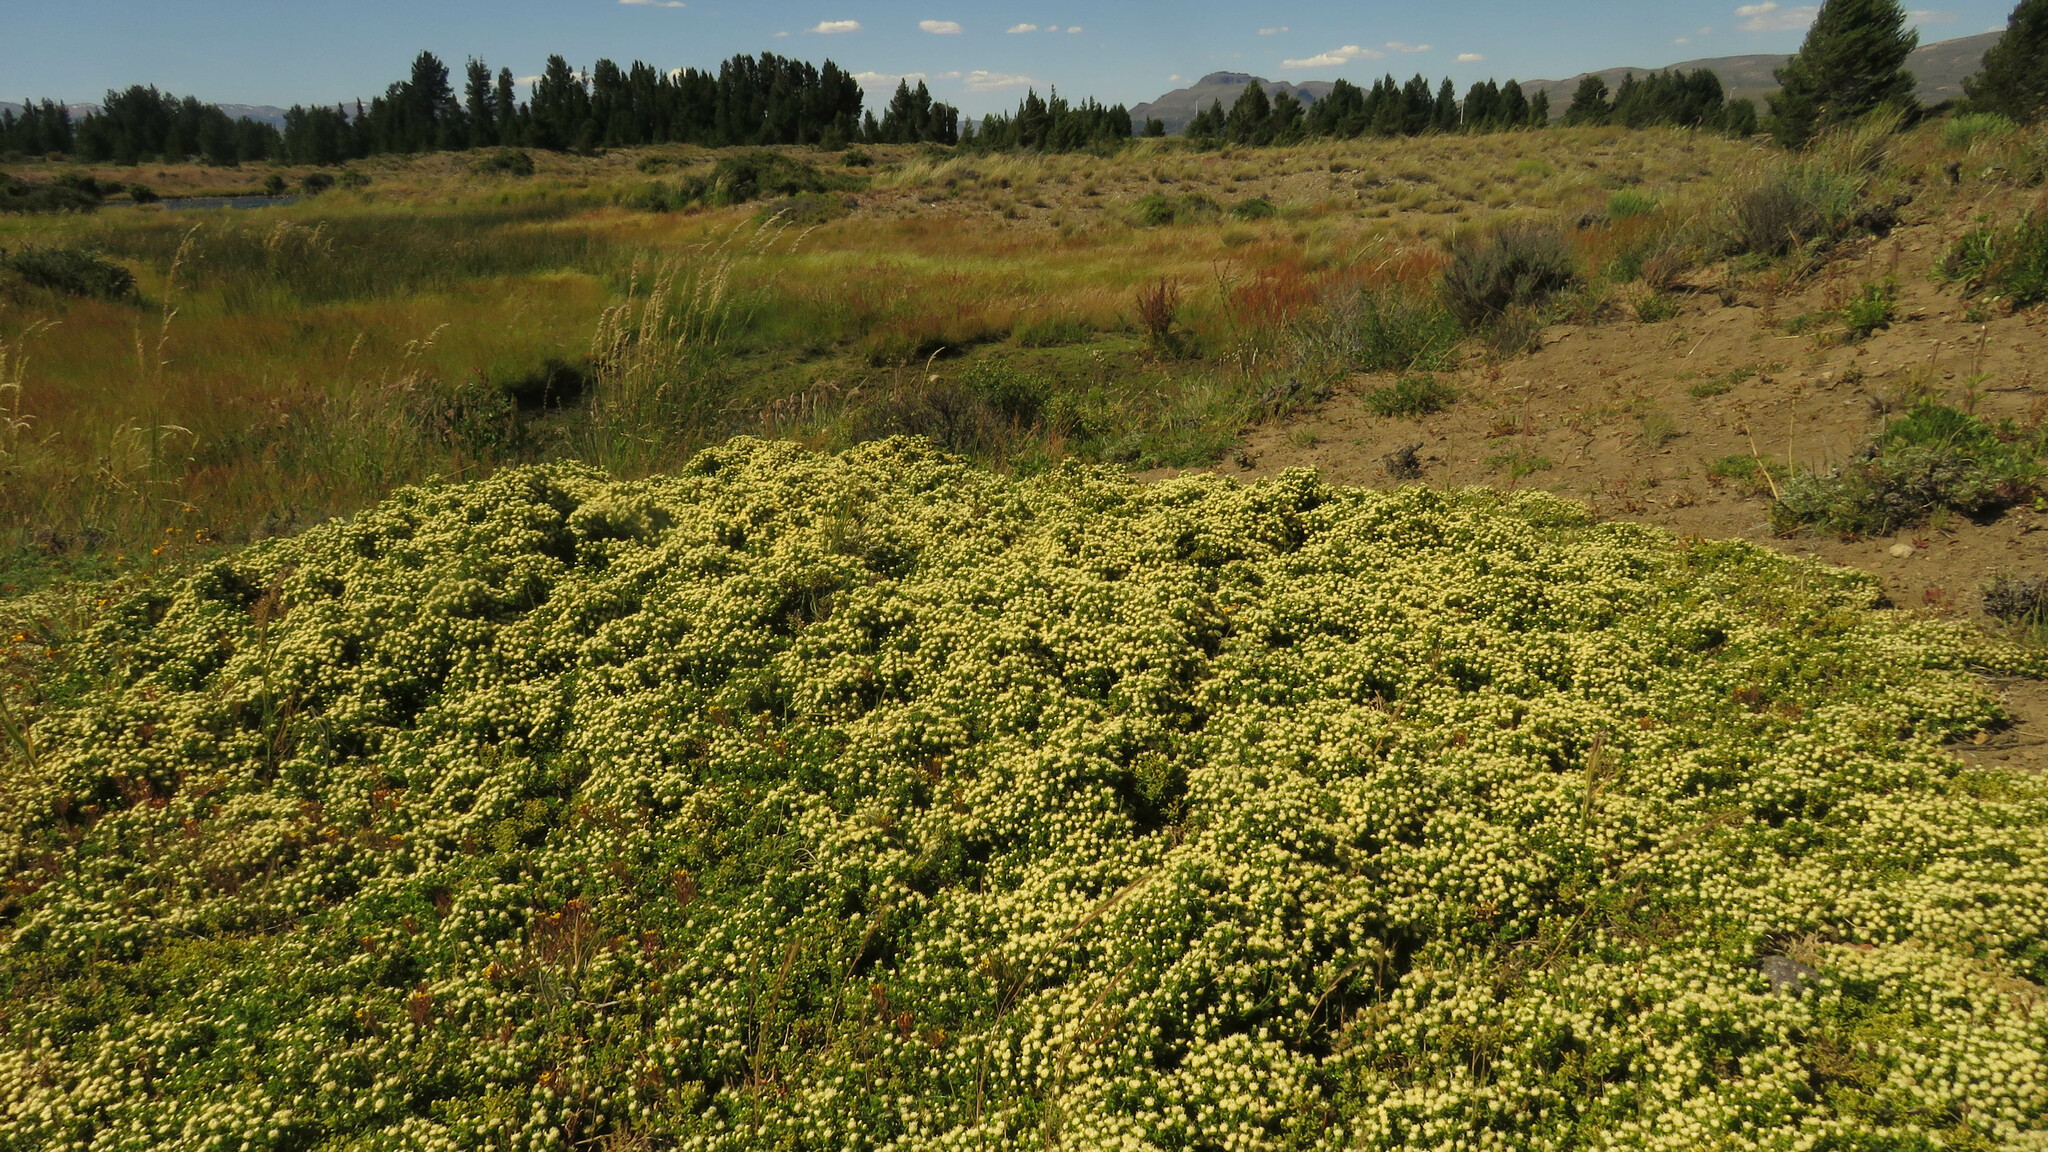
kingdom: Plantae
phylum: Tracheophyta
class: Magnoliopsida
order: Asterales
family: Asteraceae
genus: Baccharis
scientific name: Baccharis magellanica
